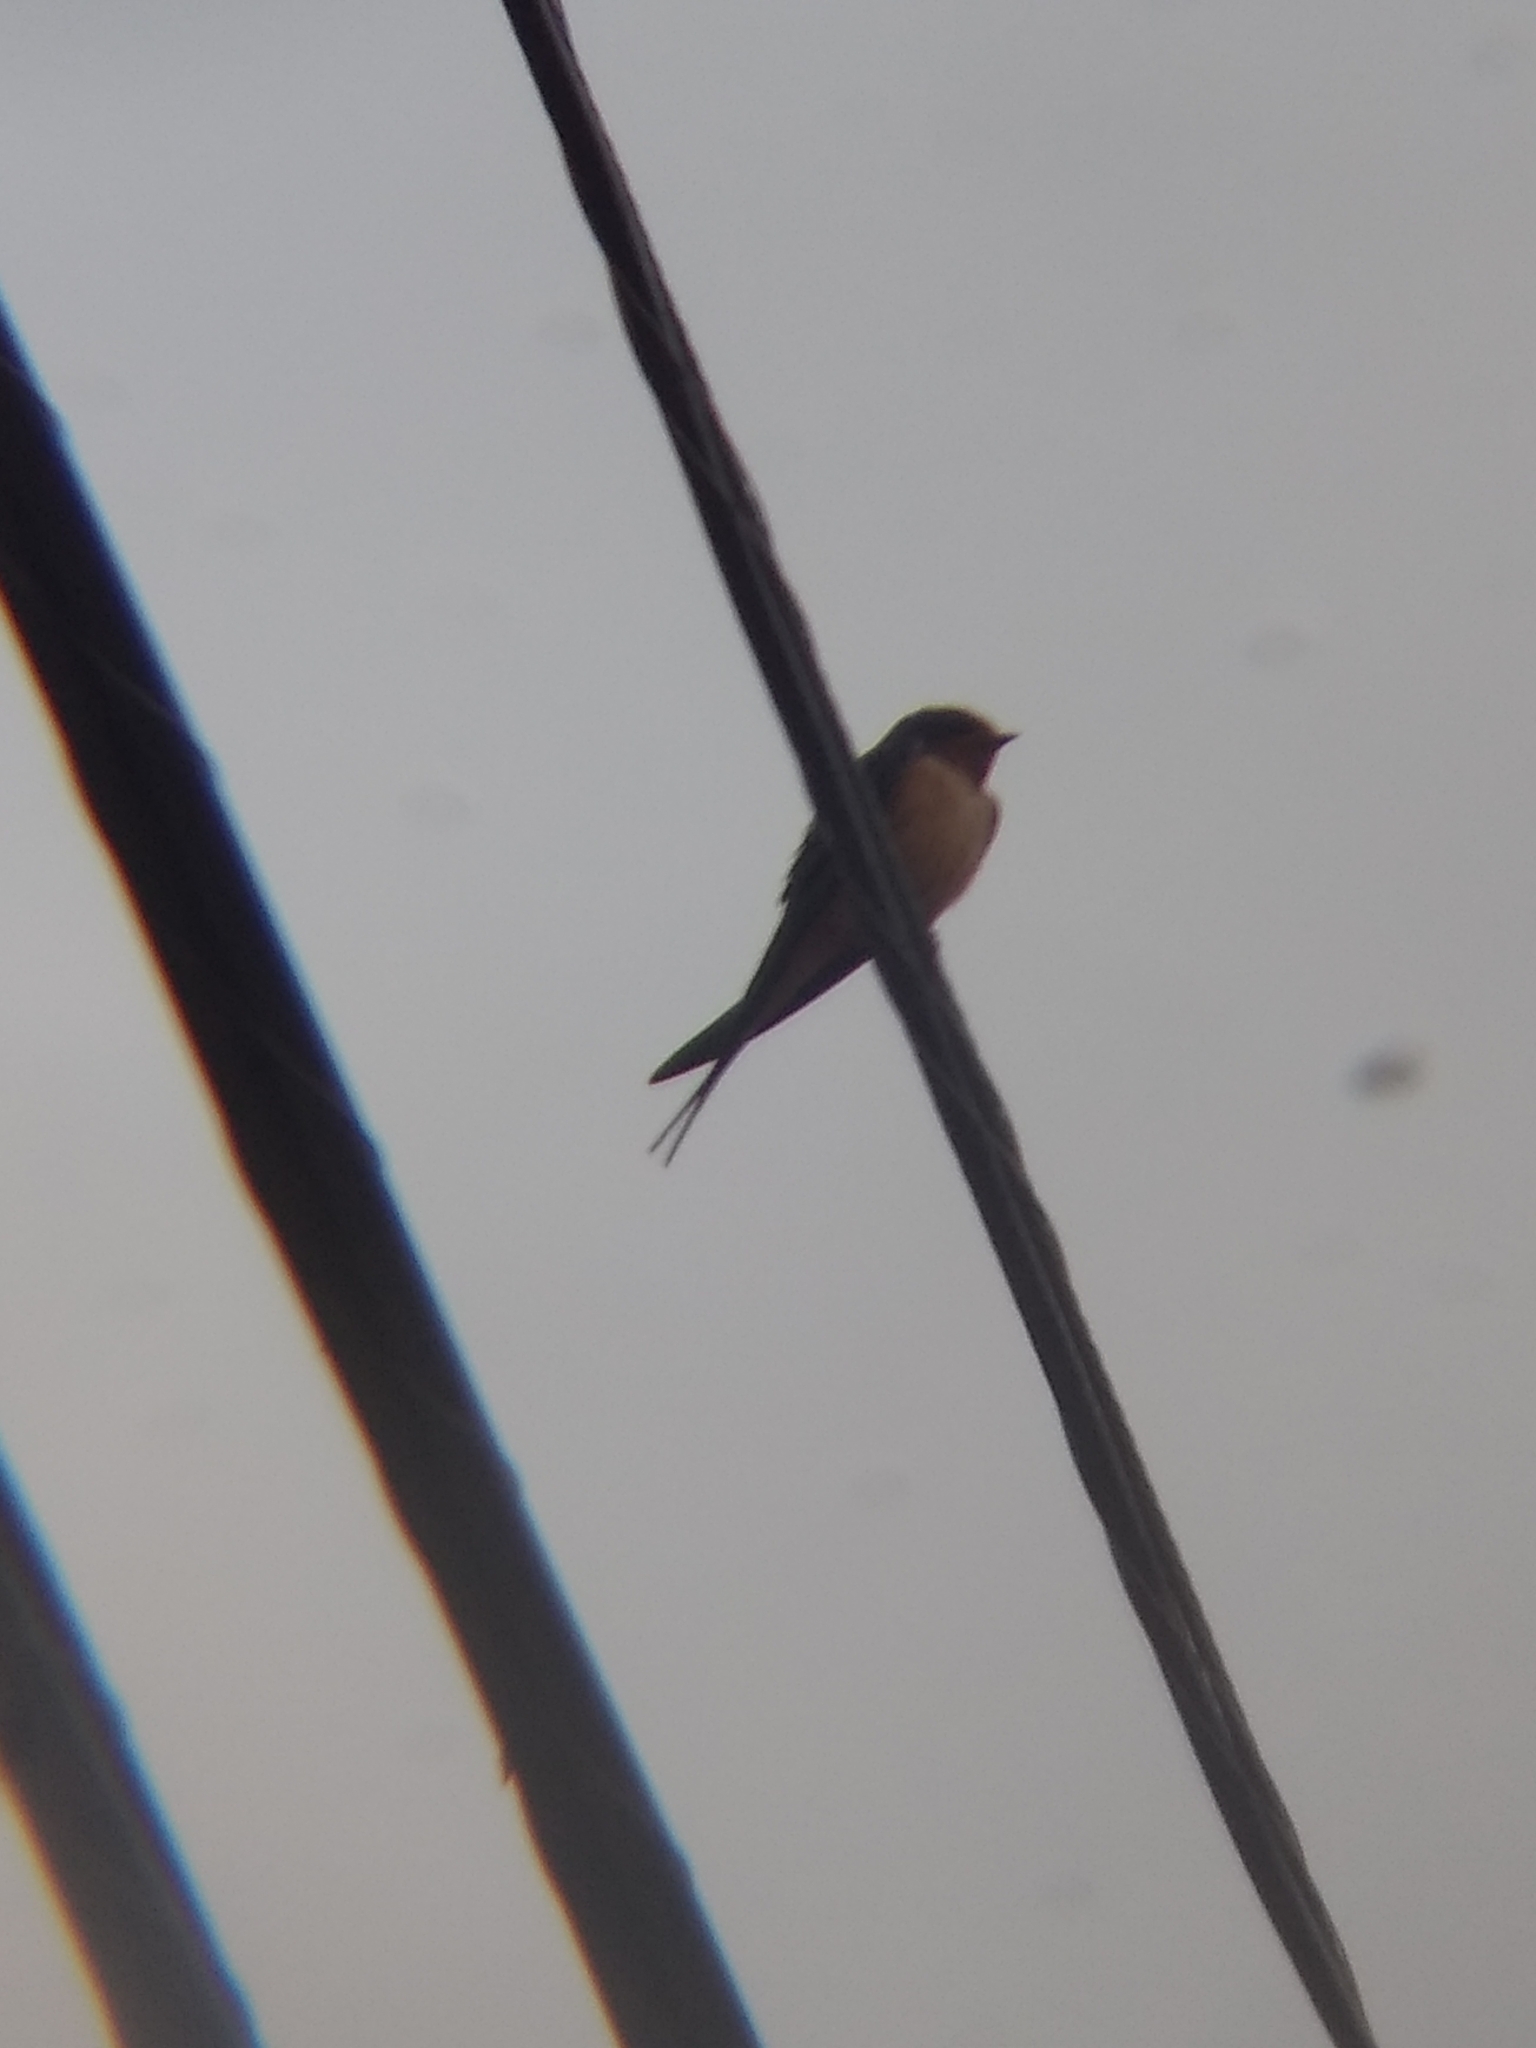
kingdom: Animalia
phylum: Chordata
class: Aves
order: Passeriformes
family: Hirundinidae
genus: Hirundo
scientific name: Hirundo rustica
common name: Barn swallow
